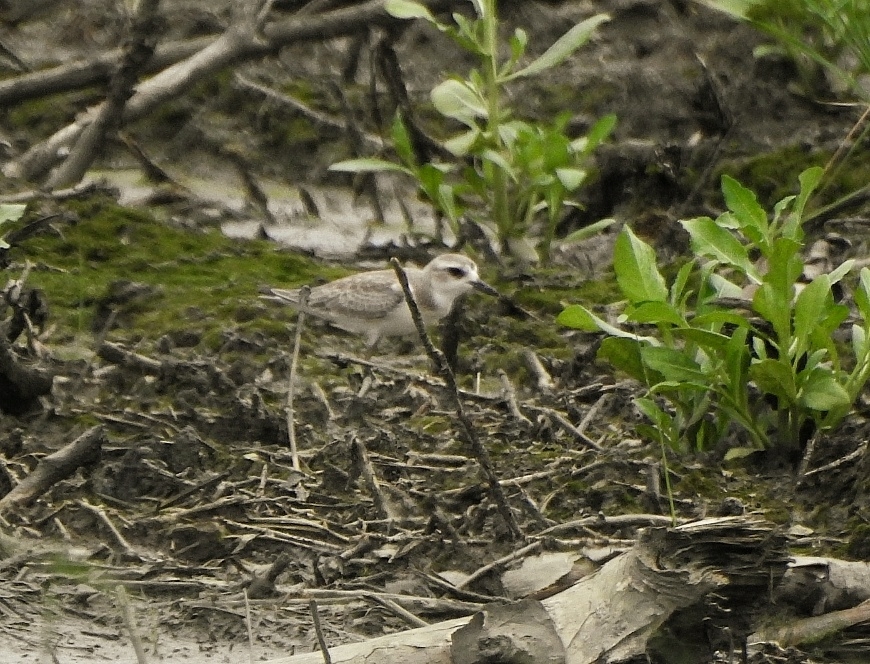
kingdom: Animalia
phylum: Chordata
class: Aves
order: Charadriiformes
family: Charadriidae
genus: Charadrius
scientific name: Charadrius leschenaultii
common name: Greater sand plover
